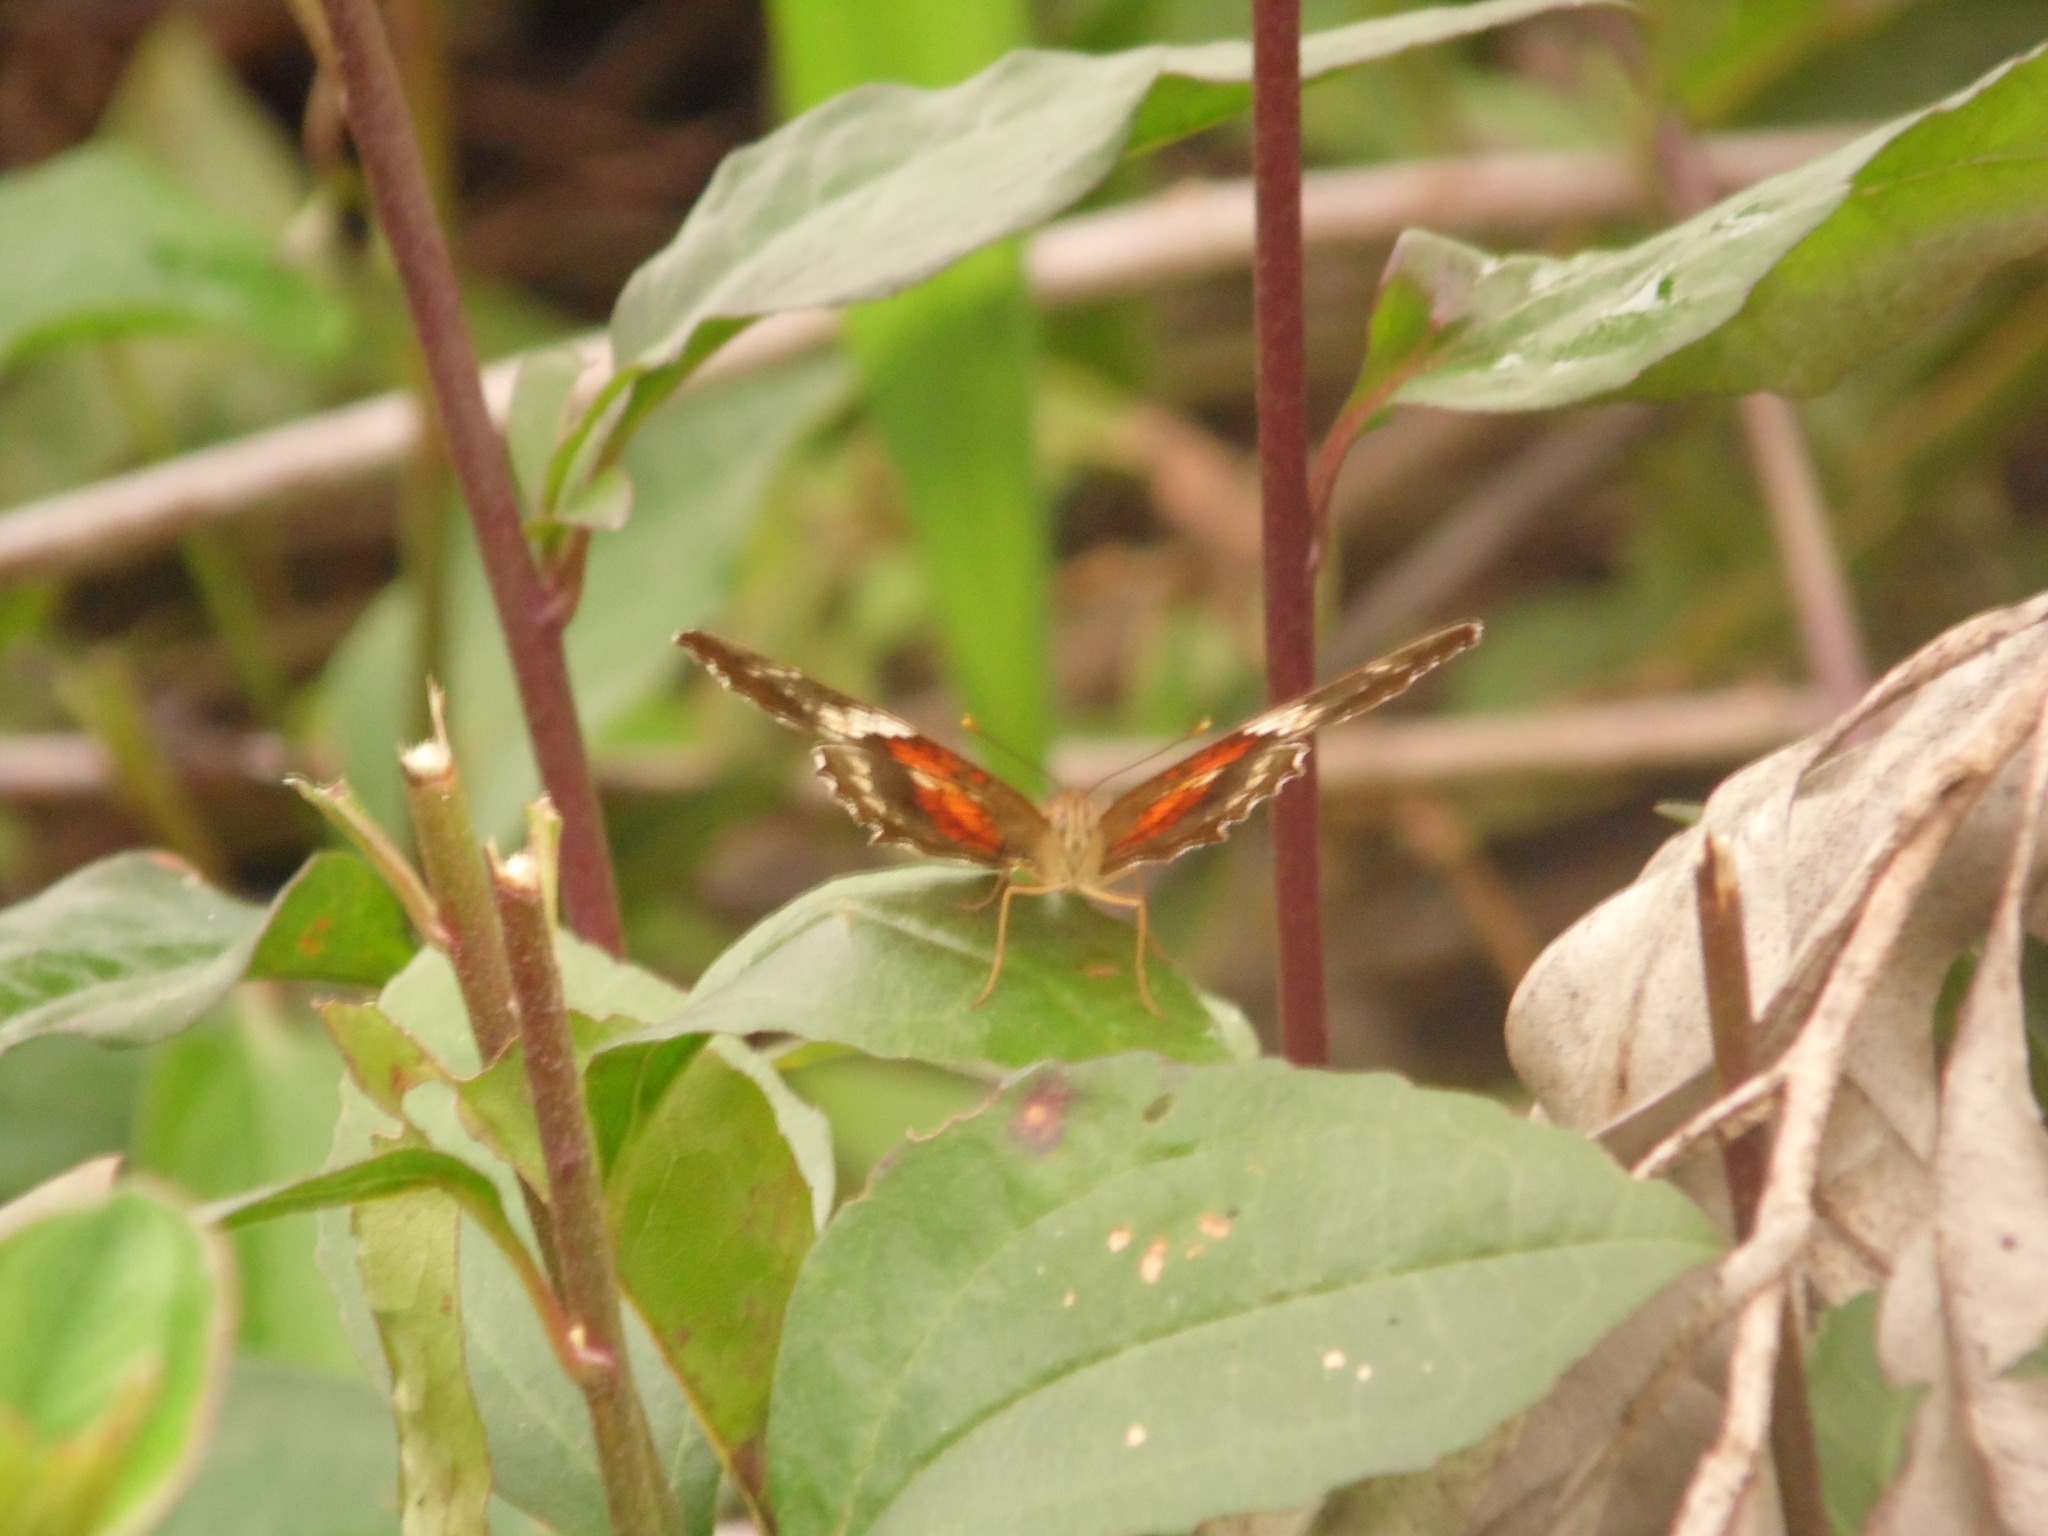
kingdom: Animalia
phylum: Arthropoda
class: Insecta
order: Lepidoptera
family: Nymphalidae
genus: Anartia
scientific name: Anartia amathea
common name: Red peacock
